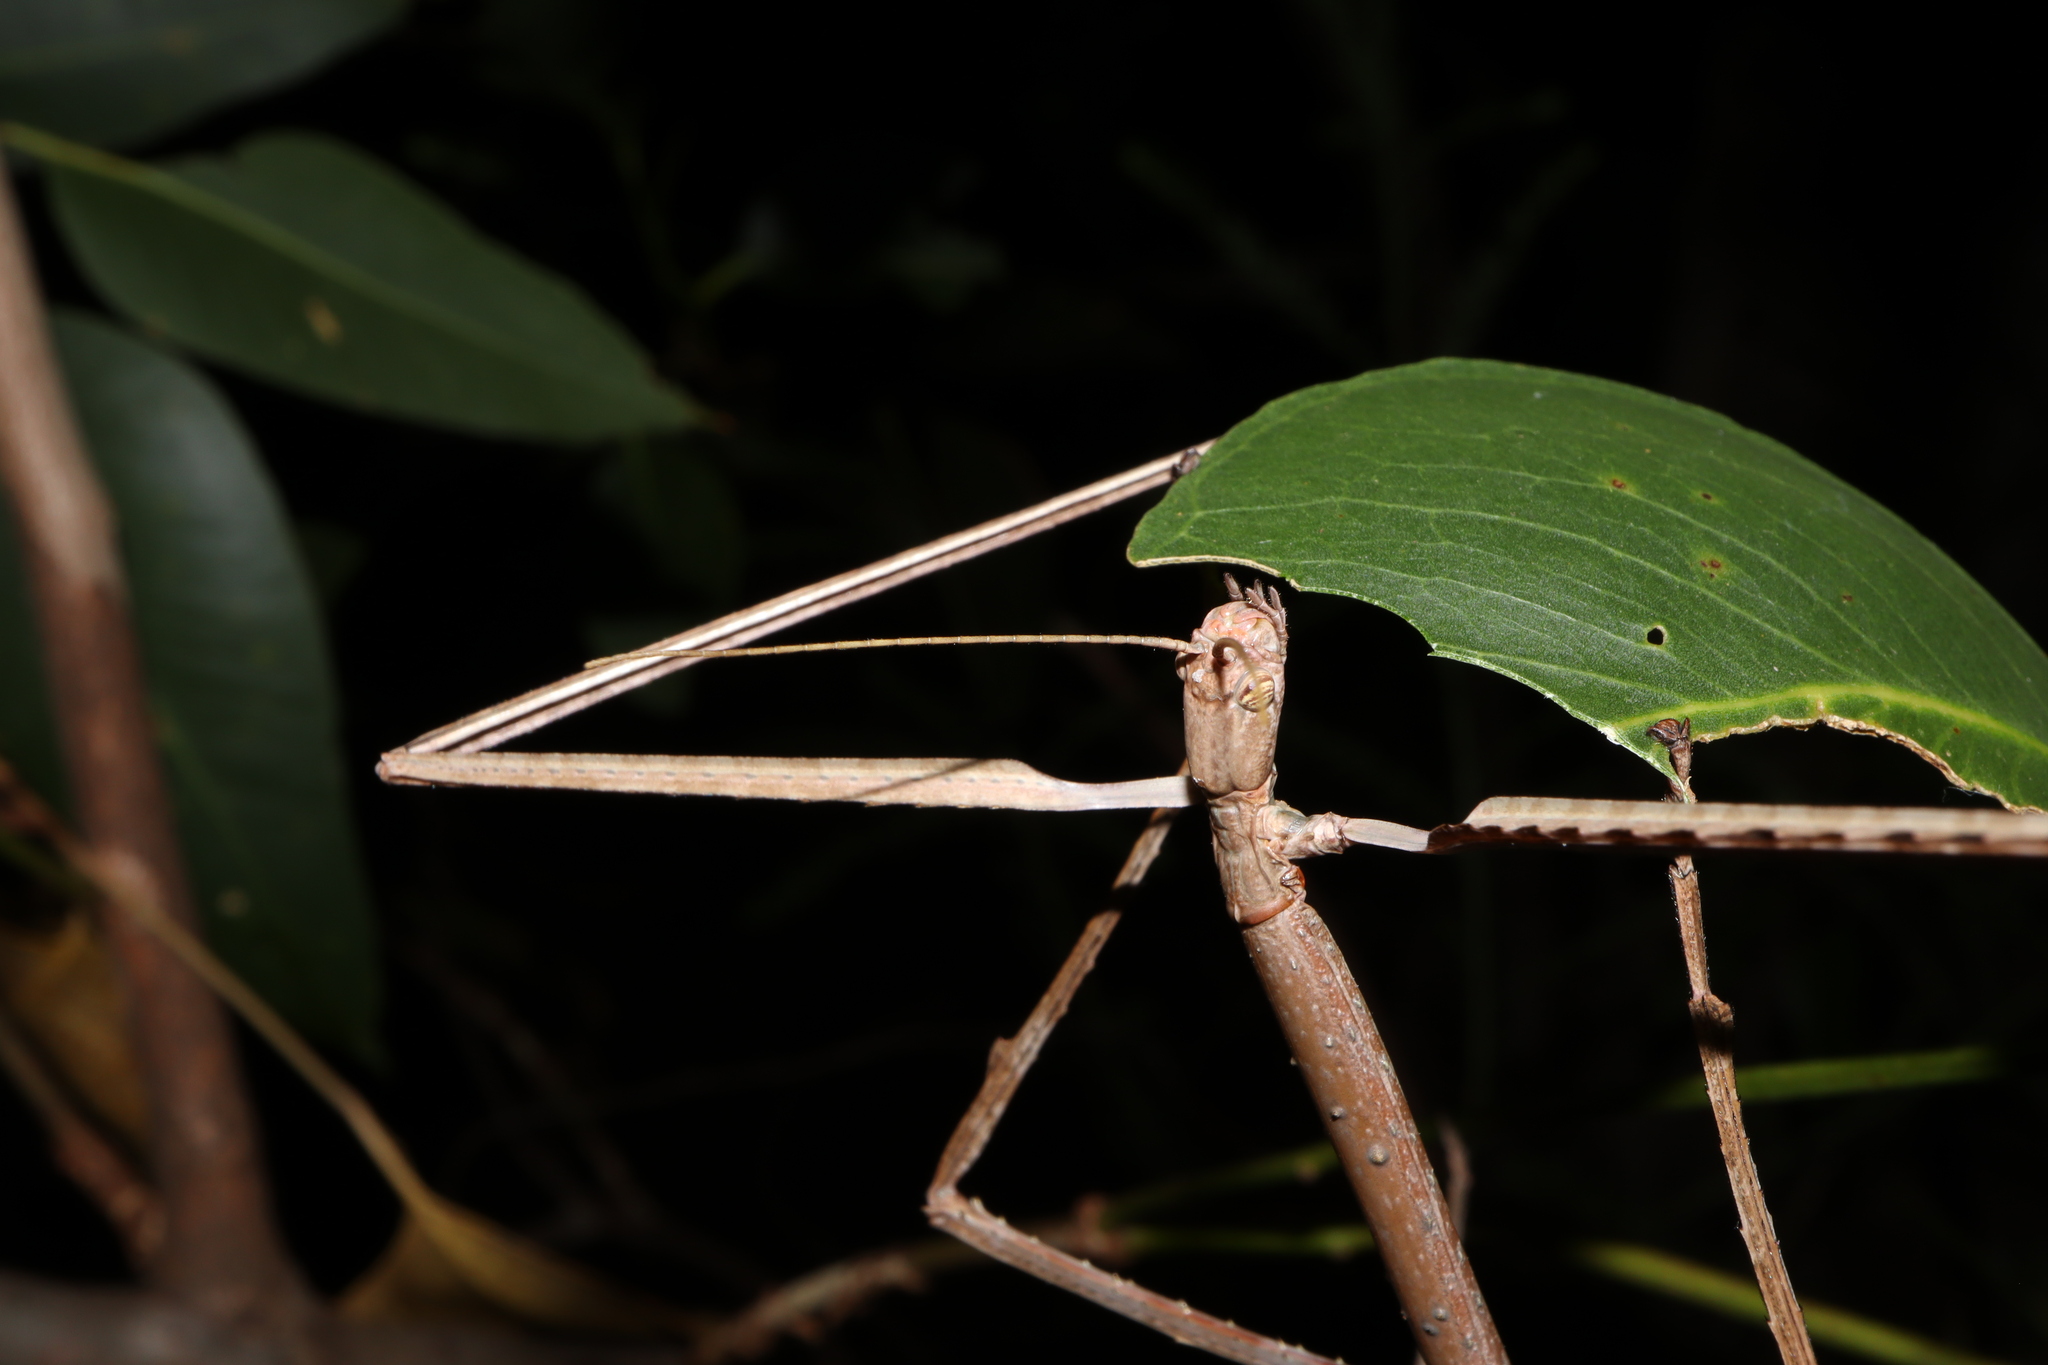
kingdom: Animalia
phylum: Arthropoda
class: Insecta
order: Phasmida
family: Phasmatidae
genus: Ctenomorpha
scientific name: Ctenomorpha marginipennis
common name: Margined-winged stick-insect
